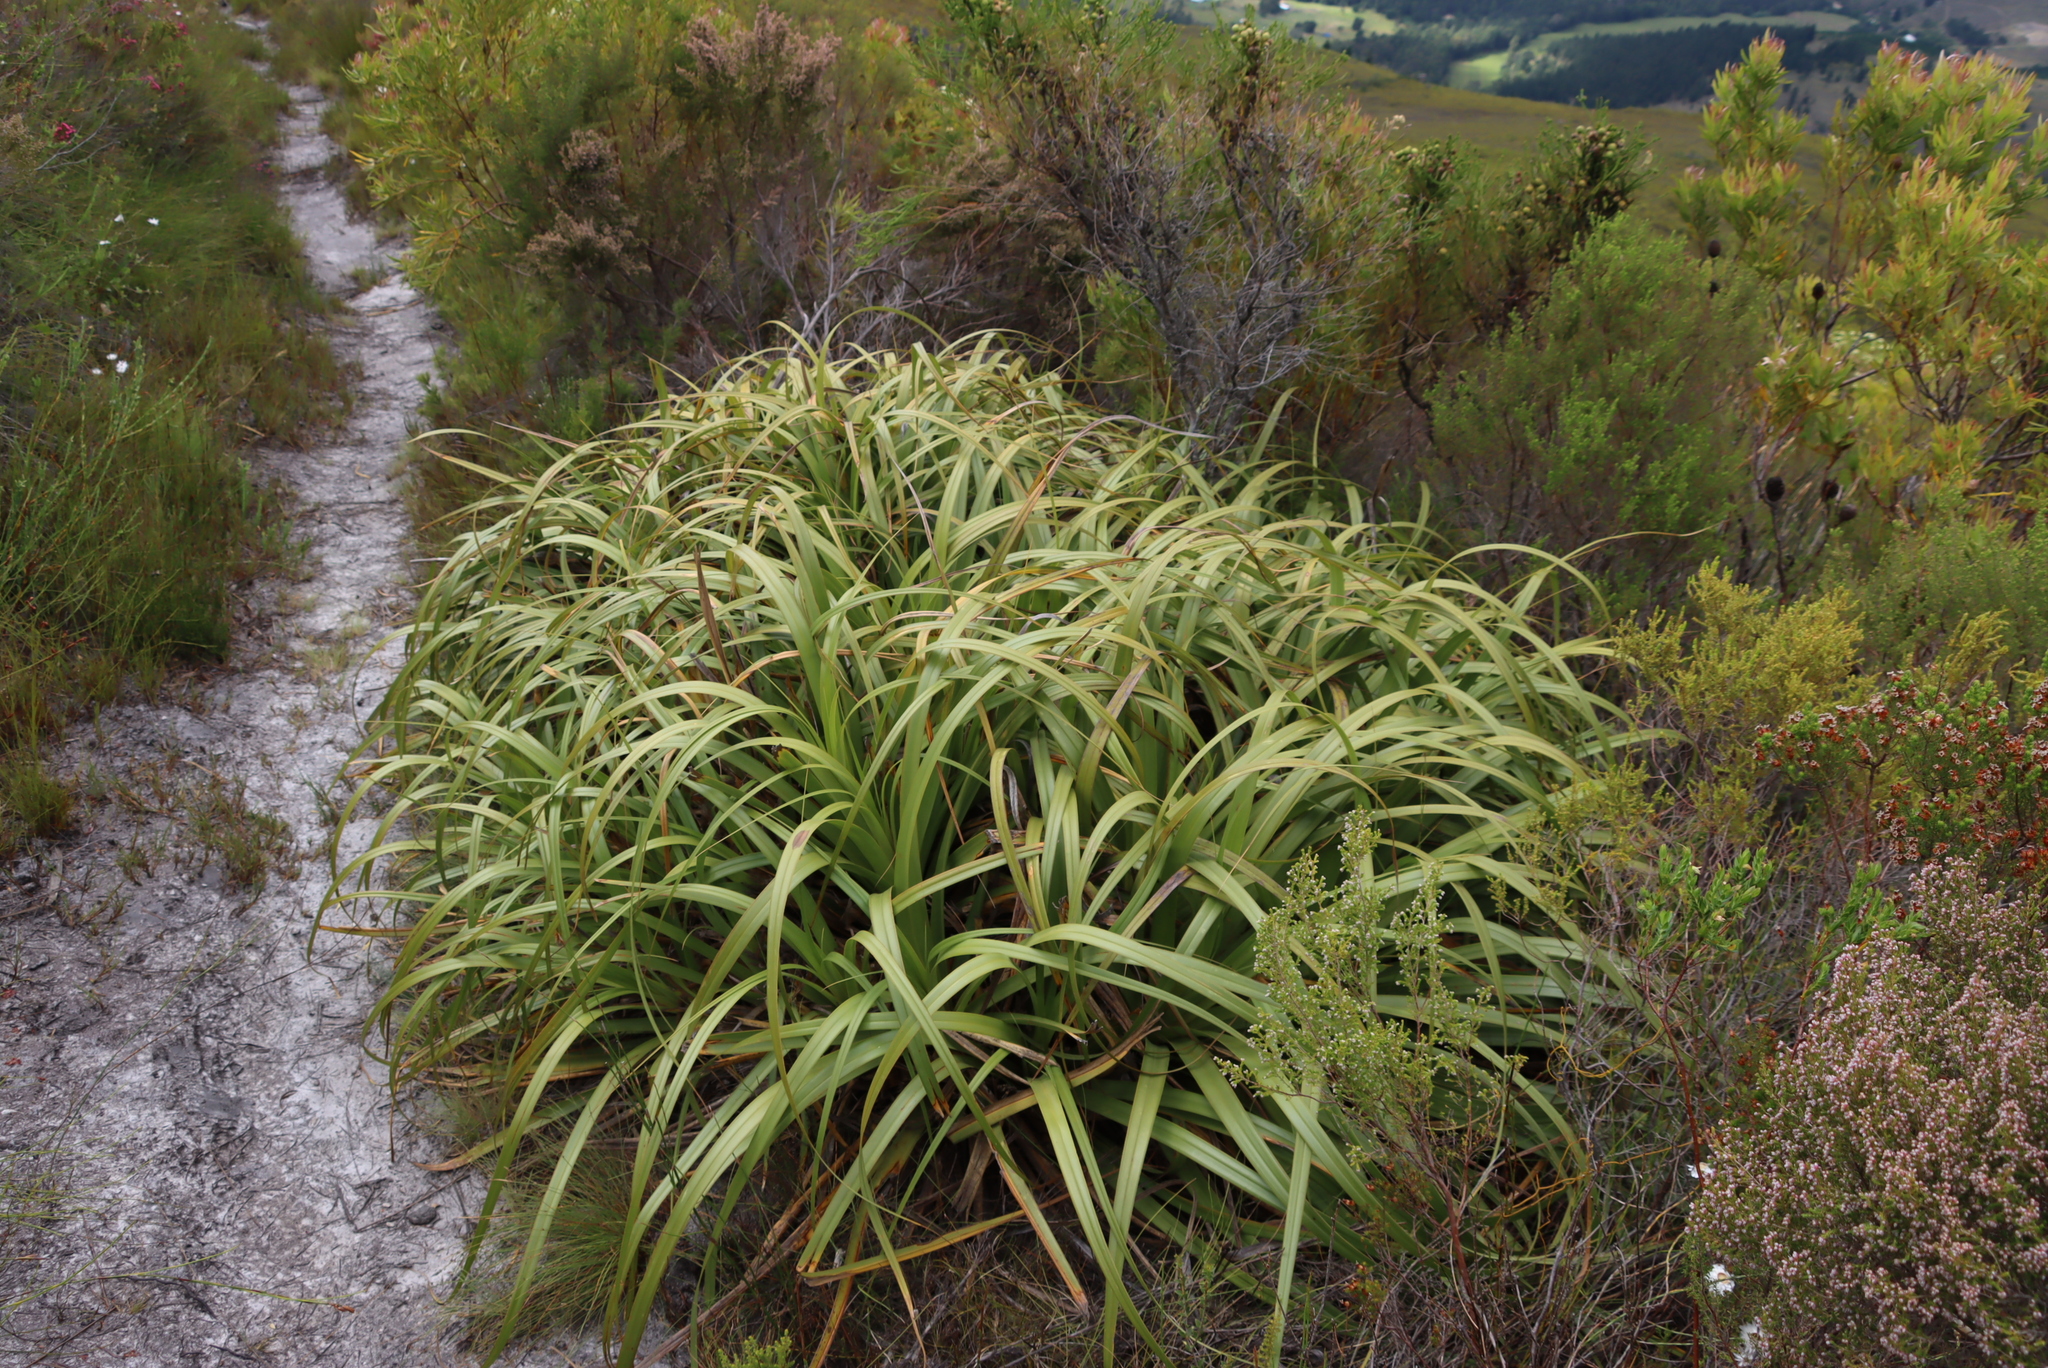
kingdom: Plantae
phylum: Tracheophyta
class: Liliopsida
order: Poales
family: Cyperaceae
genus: Tetraria
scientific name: Tetraria thermalis
